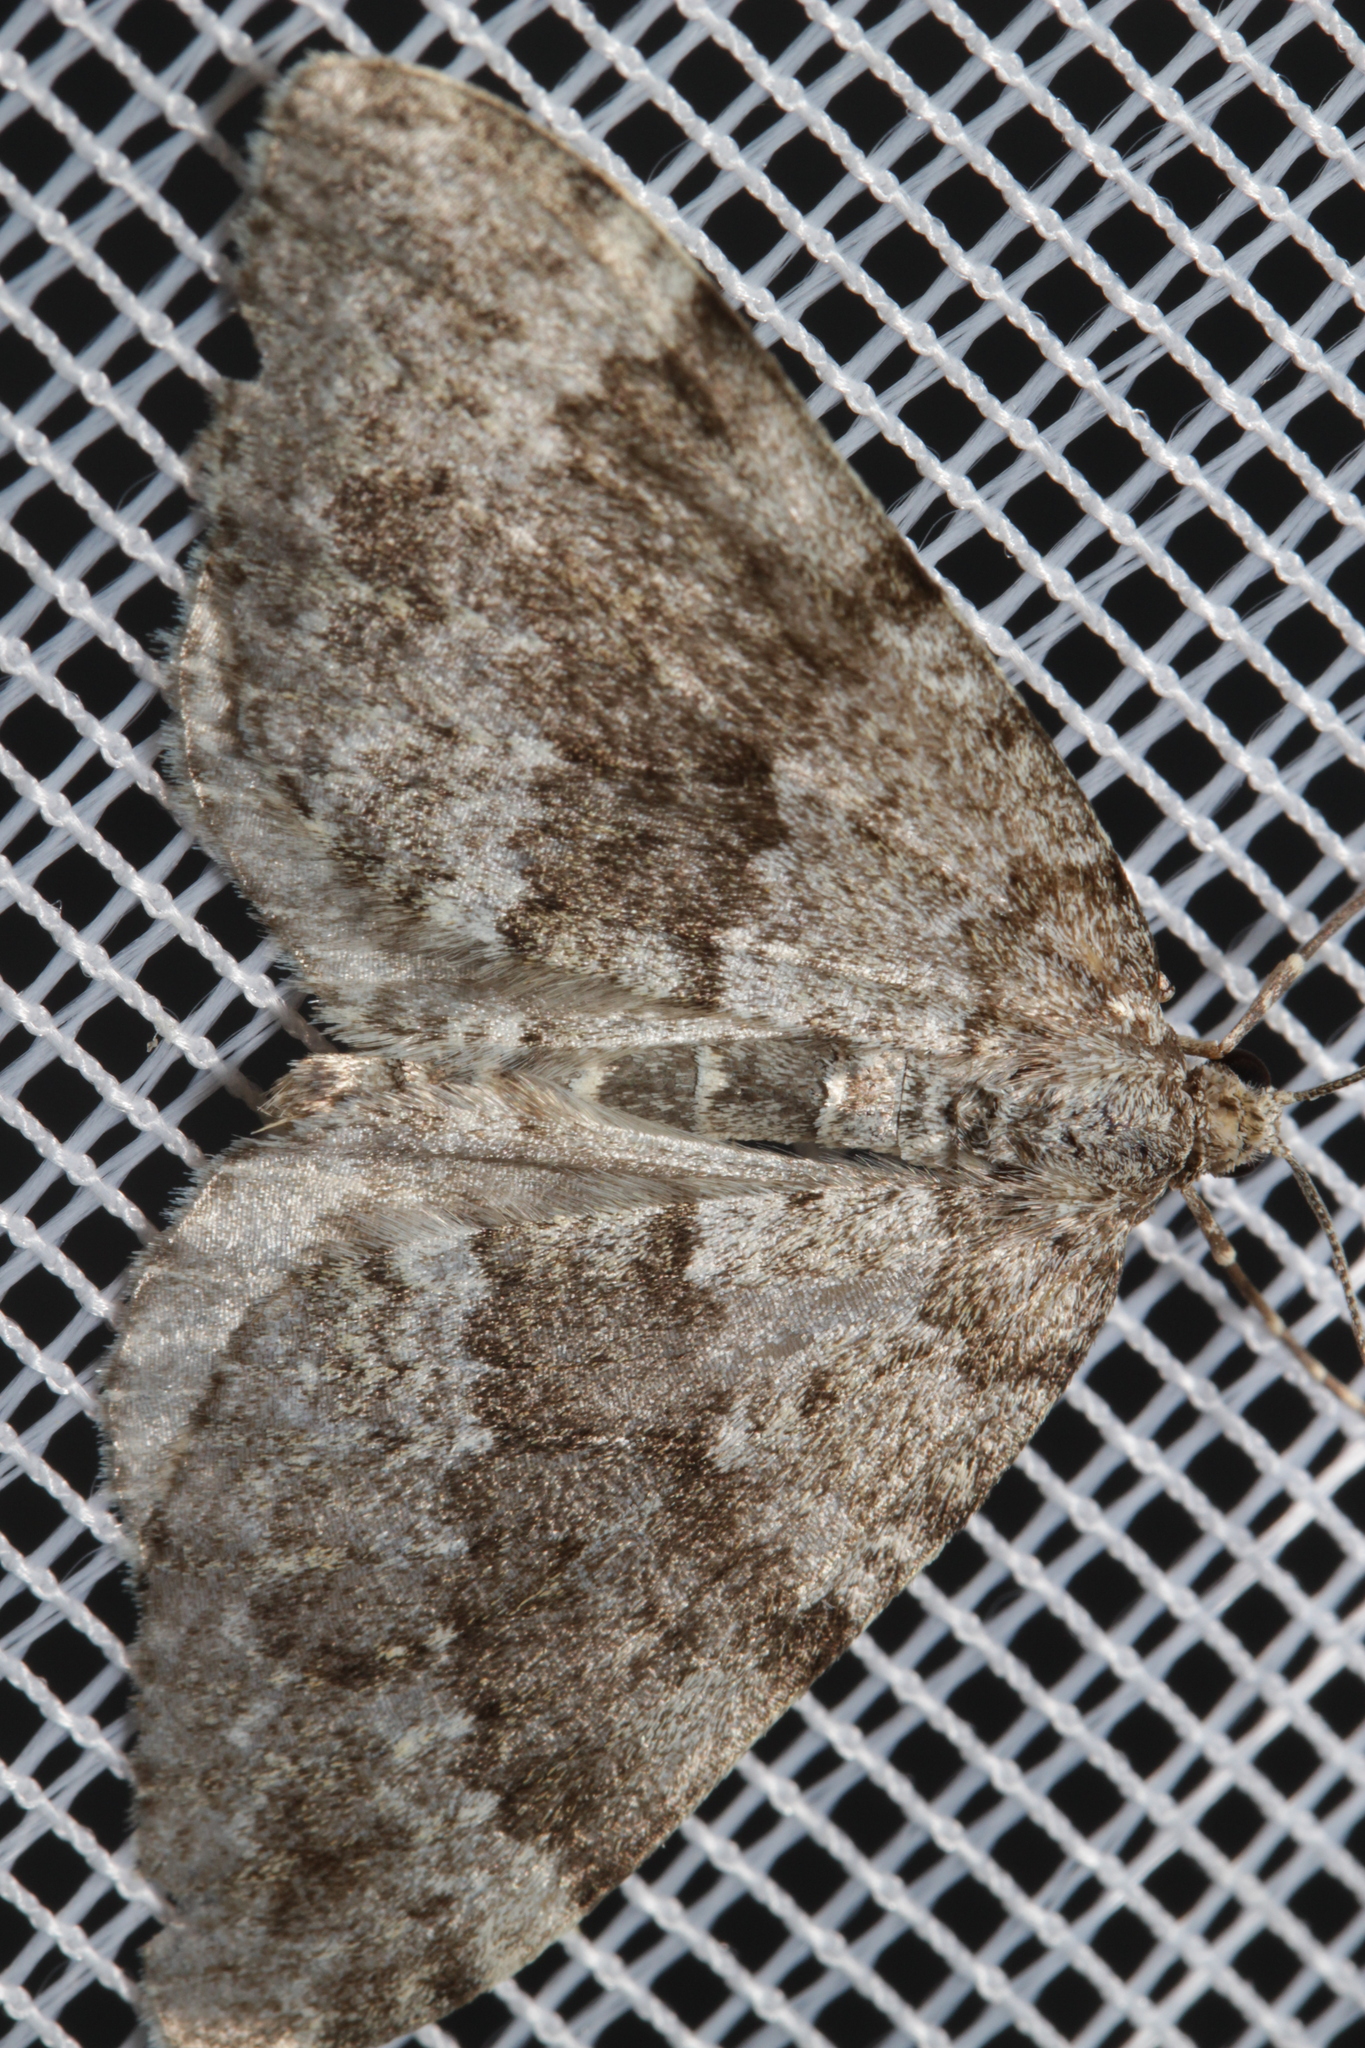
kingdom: Animalia
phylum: Arthropoda
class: Insecta
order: Lepidoptera
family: Geometridae
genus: Entephria
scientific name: Entephria caesiata
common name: Grey mountain moth
